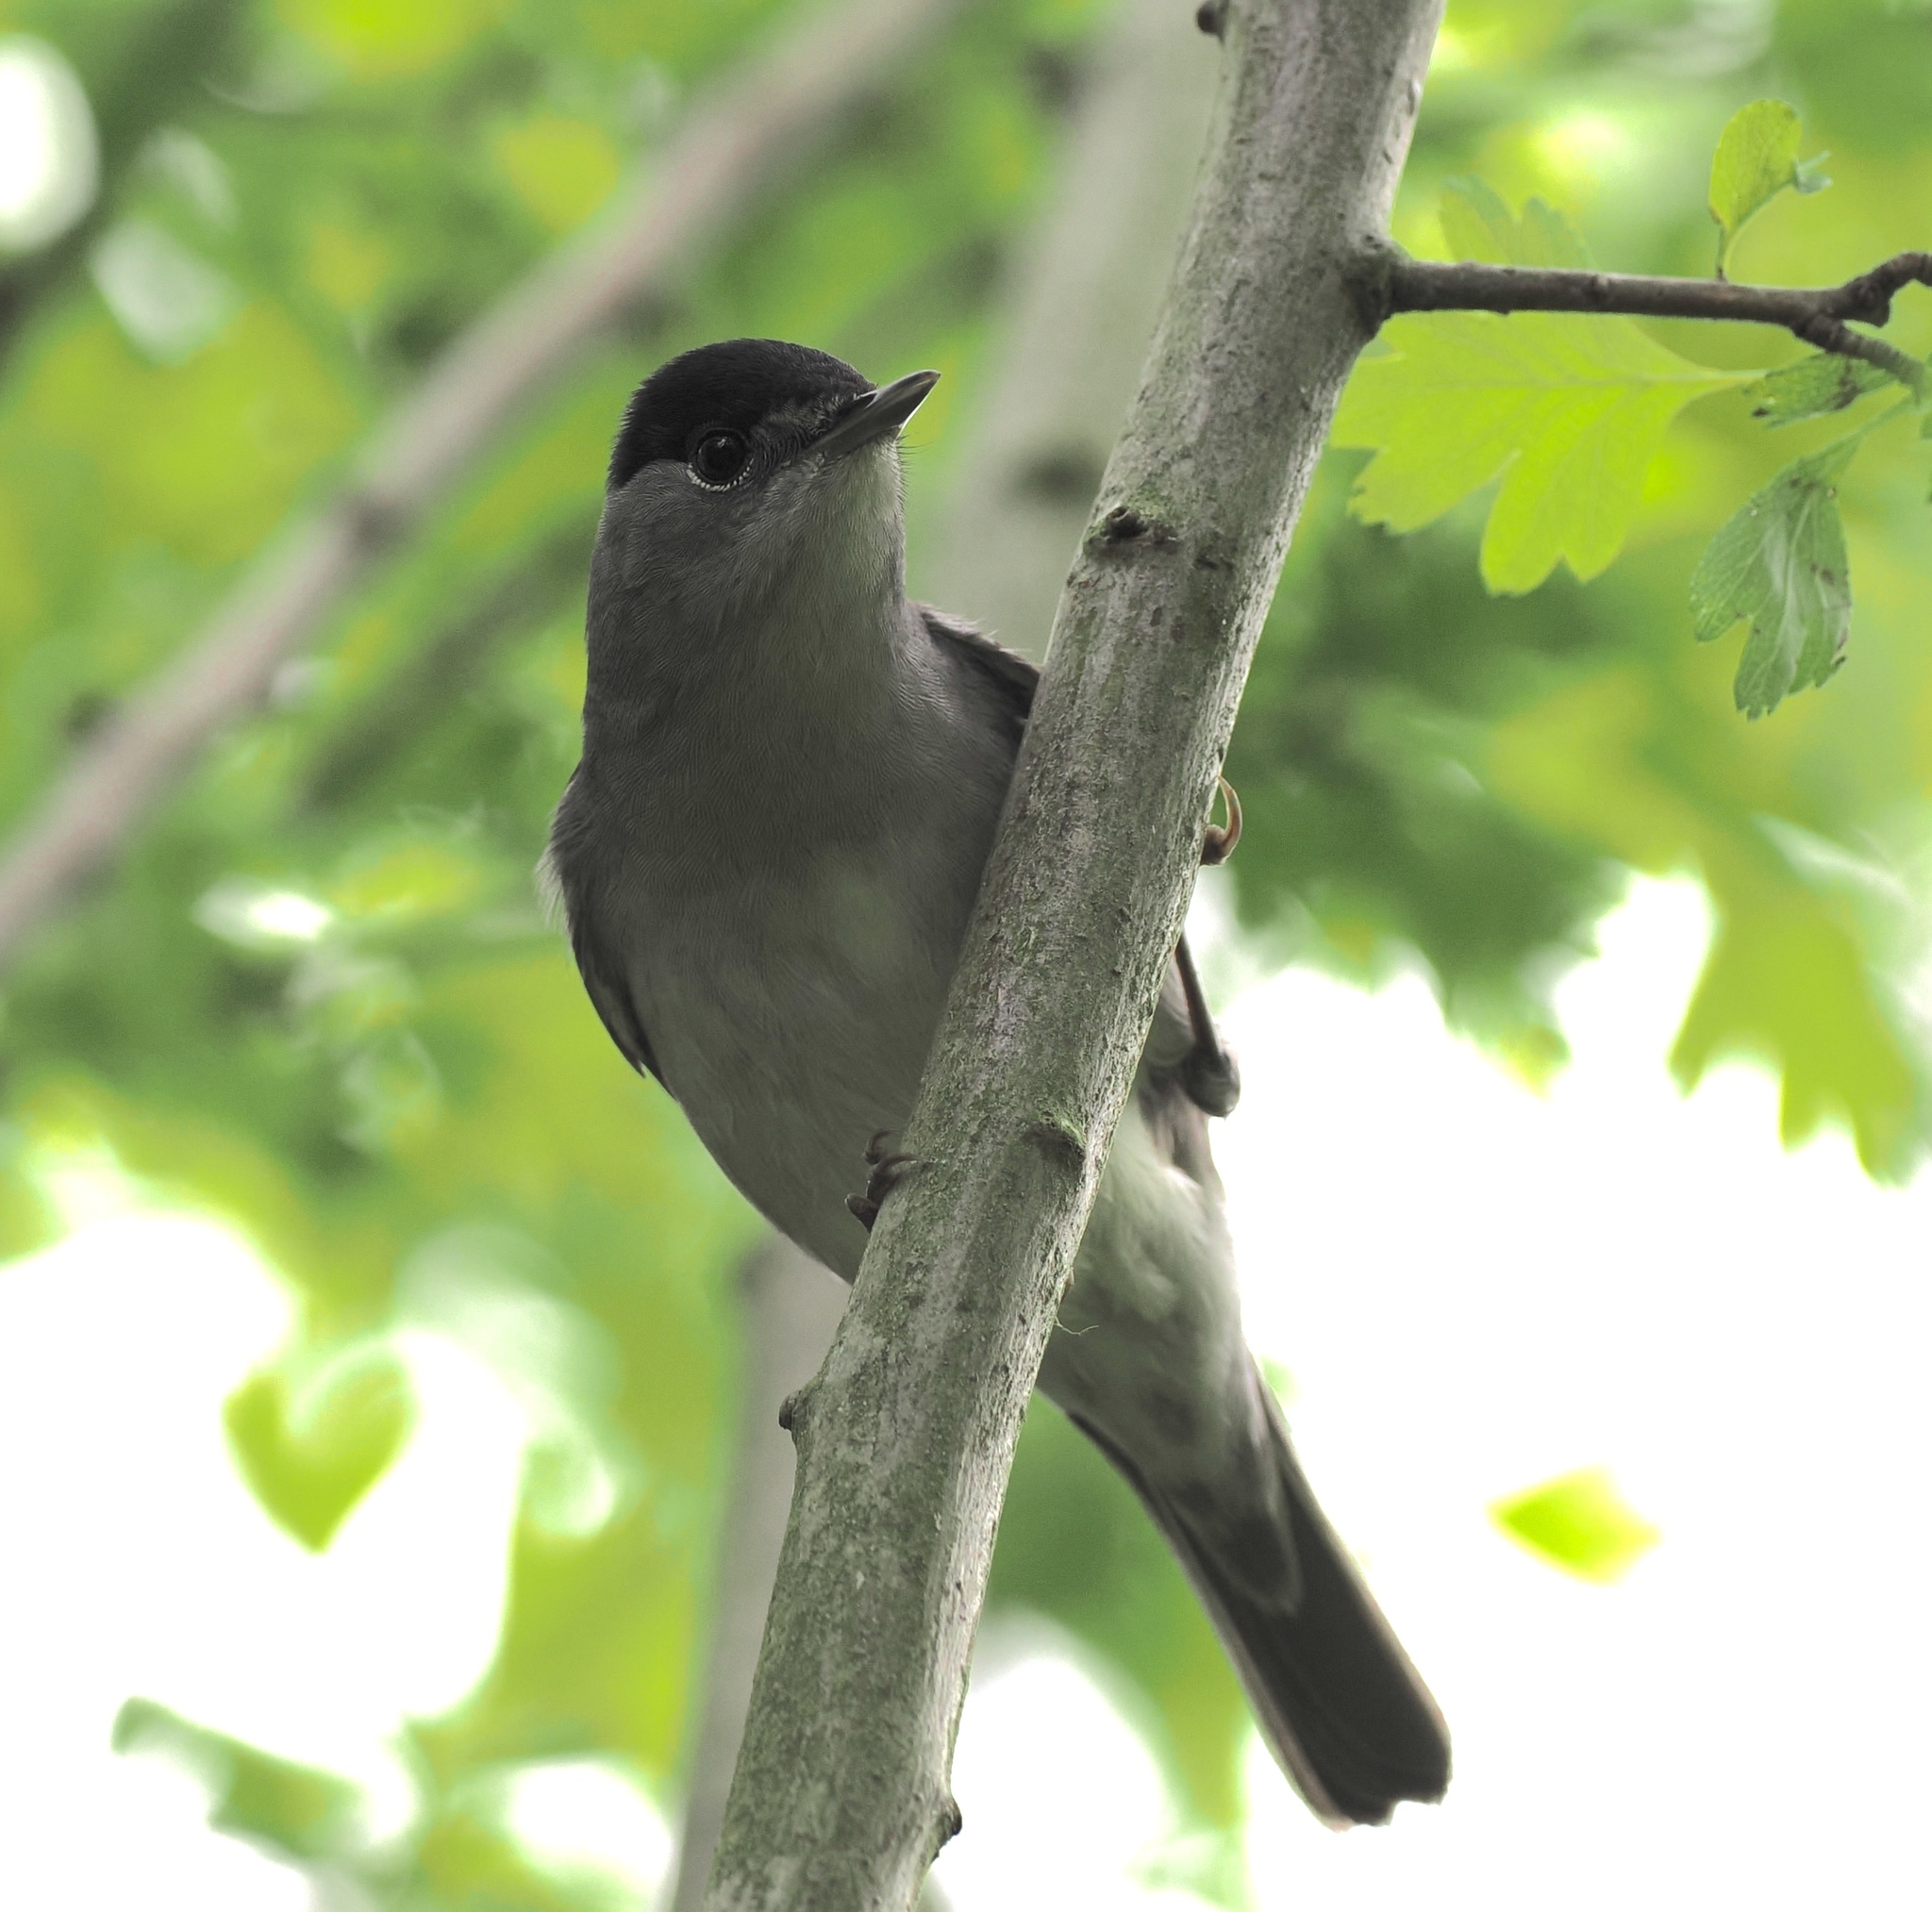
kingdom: Animalia
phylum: Chordata
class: Aves
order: Passeriformes
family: Sylviidae
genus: Sylvia
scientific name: Sylvia atricapilla
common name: Eurasian blackcap
